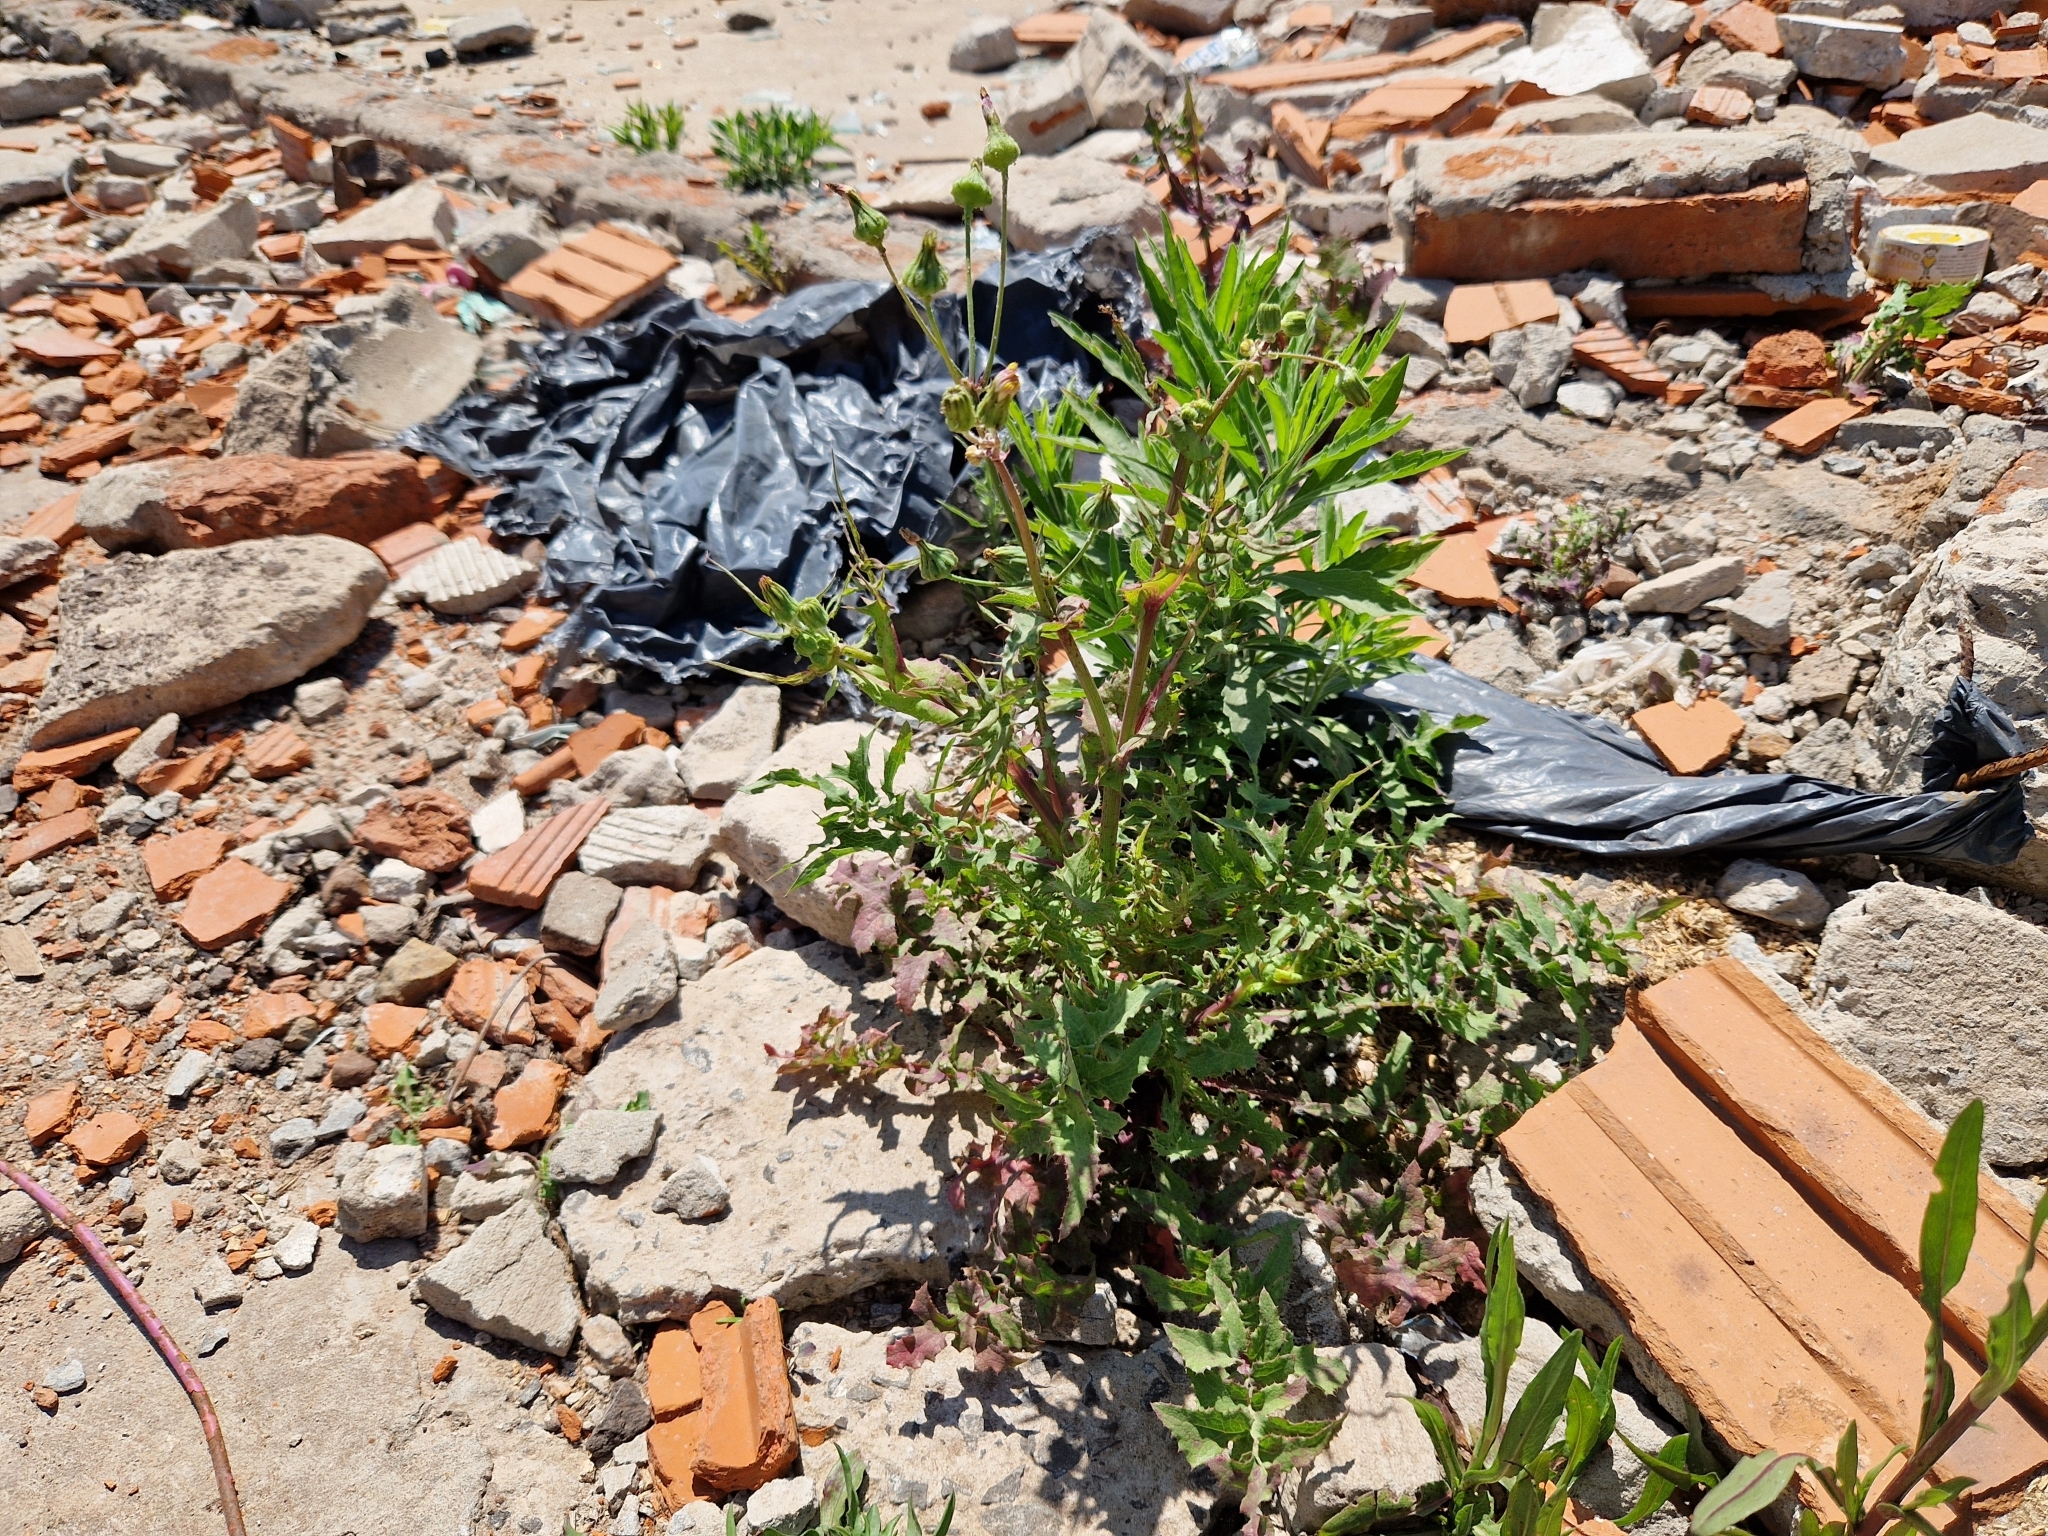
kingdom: Plantae
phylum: Tracheophyta
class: Magnoliopsida
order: Asterales
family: Asteraceae
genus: Sonchus
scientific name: Sonchus oleraceus
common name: Common sowthistle
